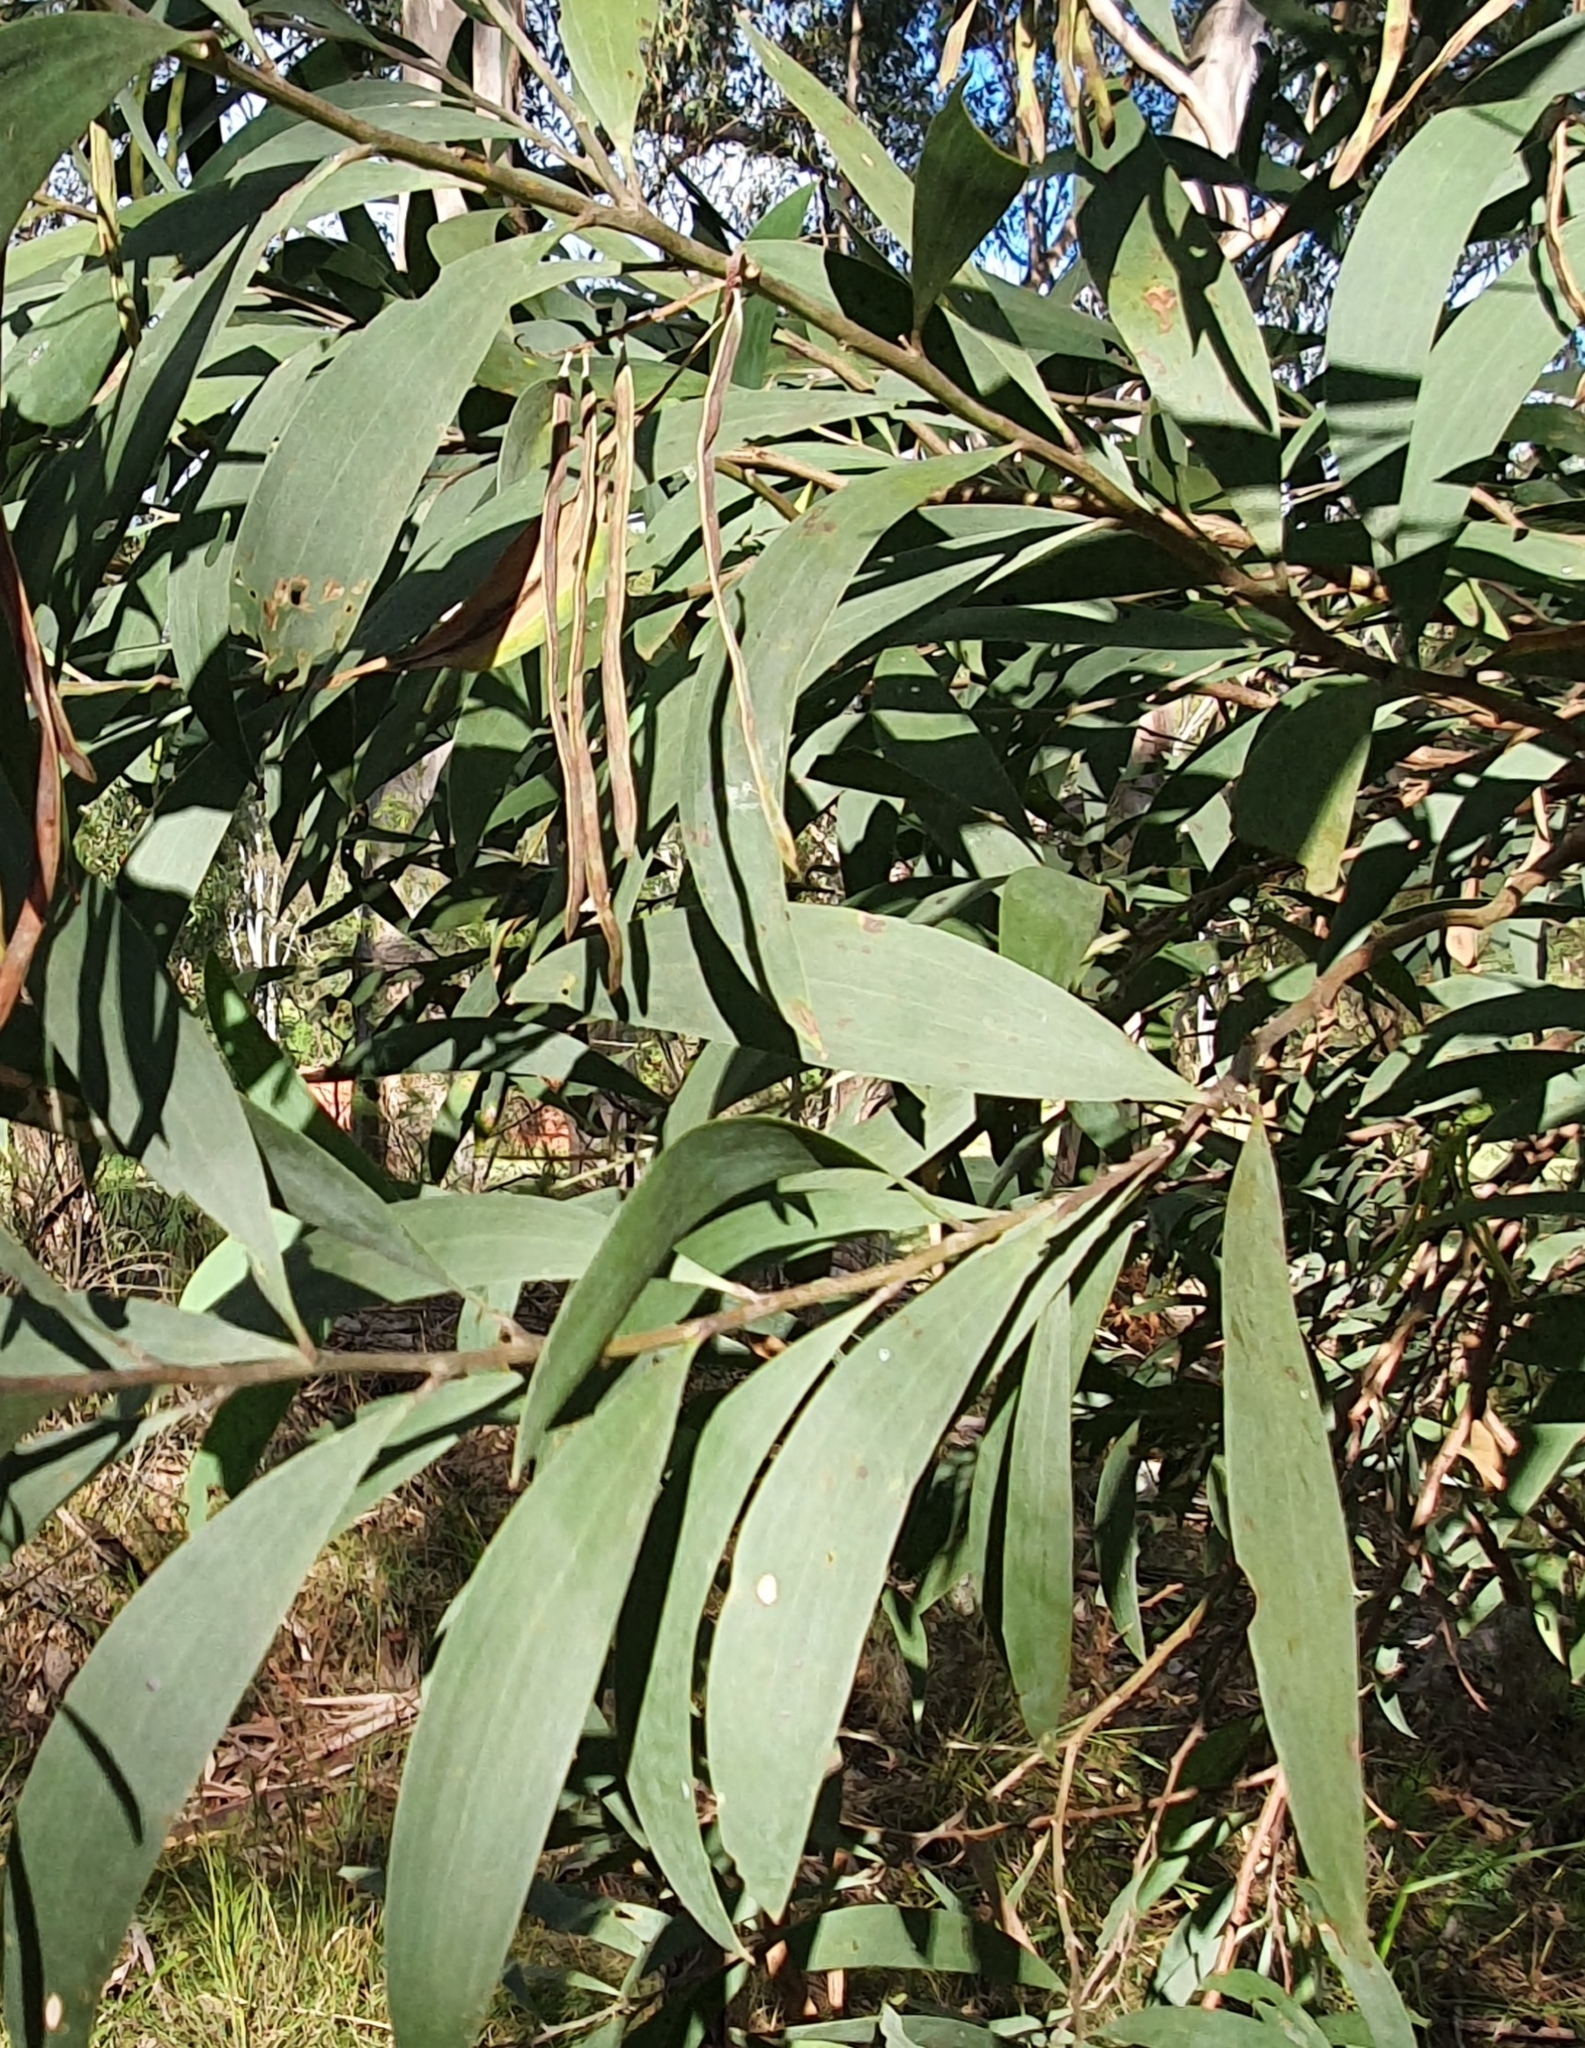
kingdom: Plantae
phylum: Tracheophyta
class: Magnoliopsida
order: Fabales
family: Fabaceae
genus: Acacia
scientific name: Acacia binervia
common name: Coast myall
